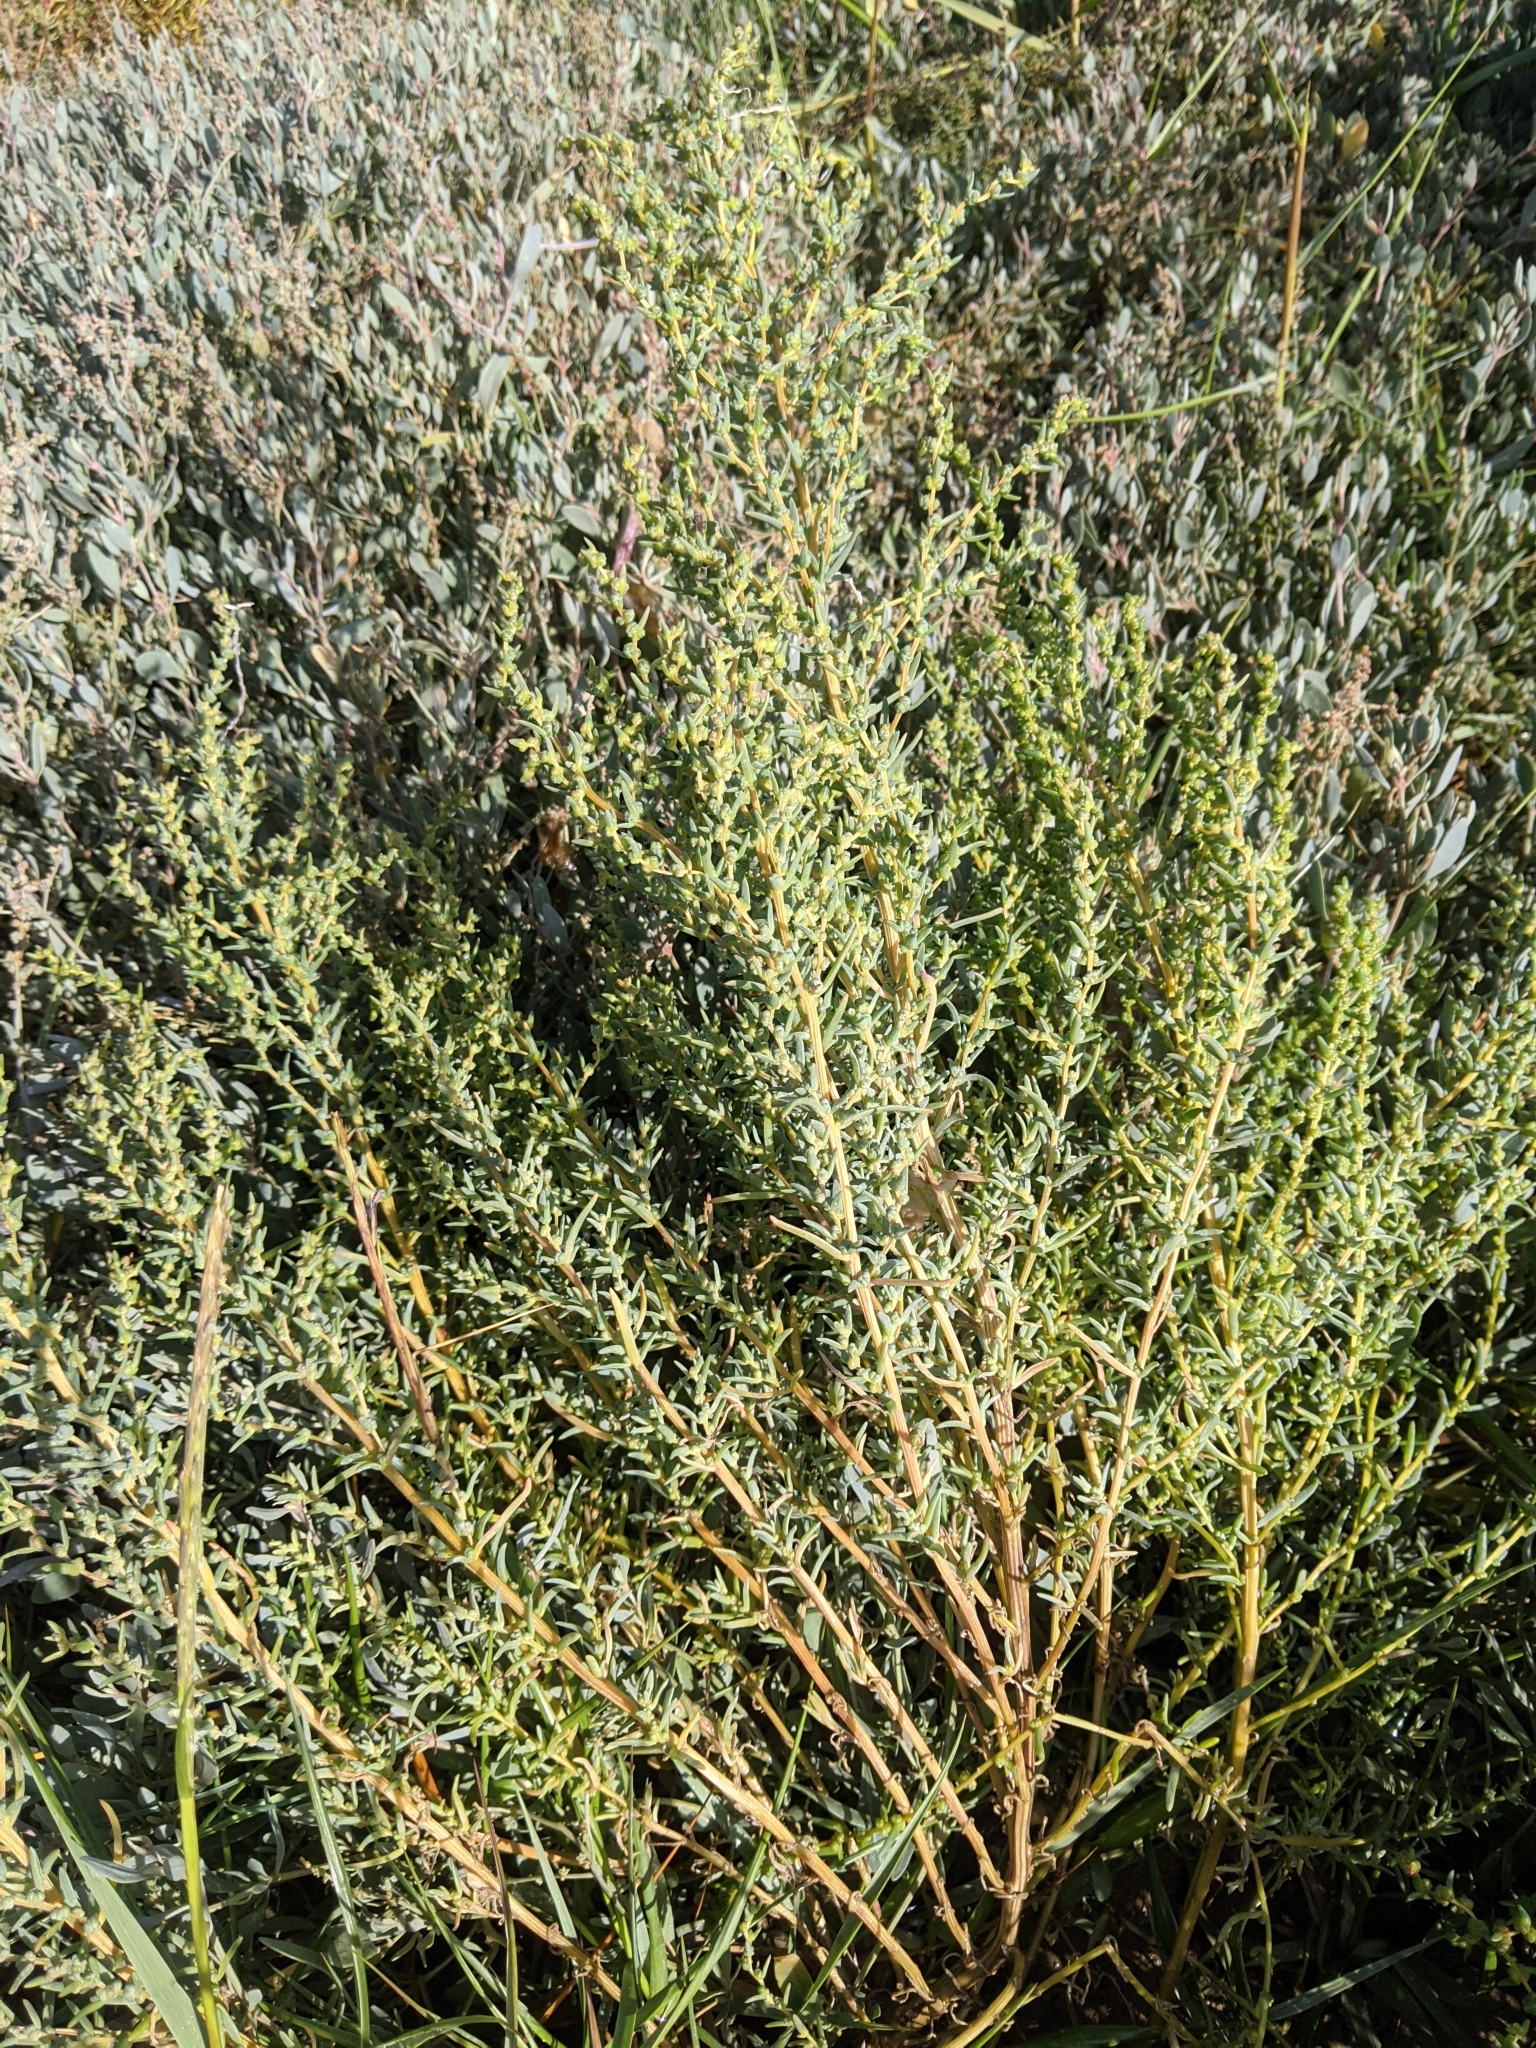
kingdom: Plantae
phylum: Tracheophyta
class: Magnoliopsida
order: Caryophyllales
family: Amaranthaceae
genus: Suaeda
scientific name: Suaeda maritima
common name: Annual sea-blite
